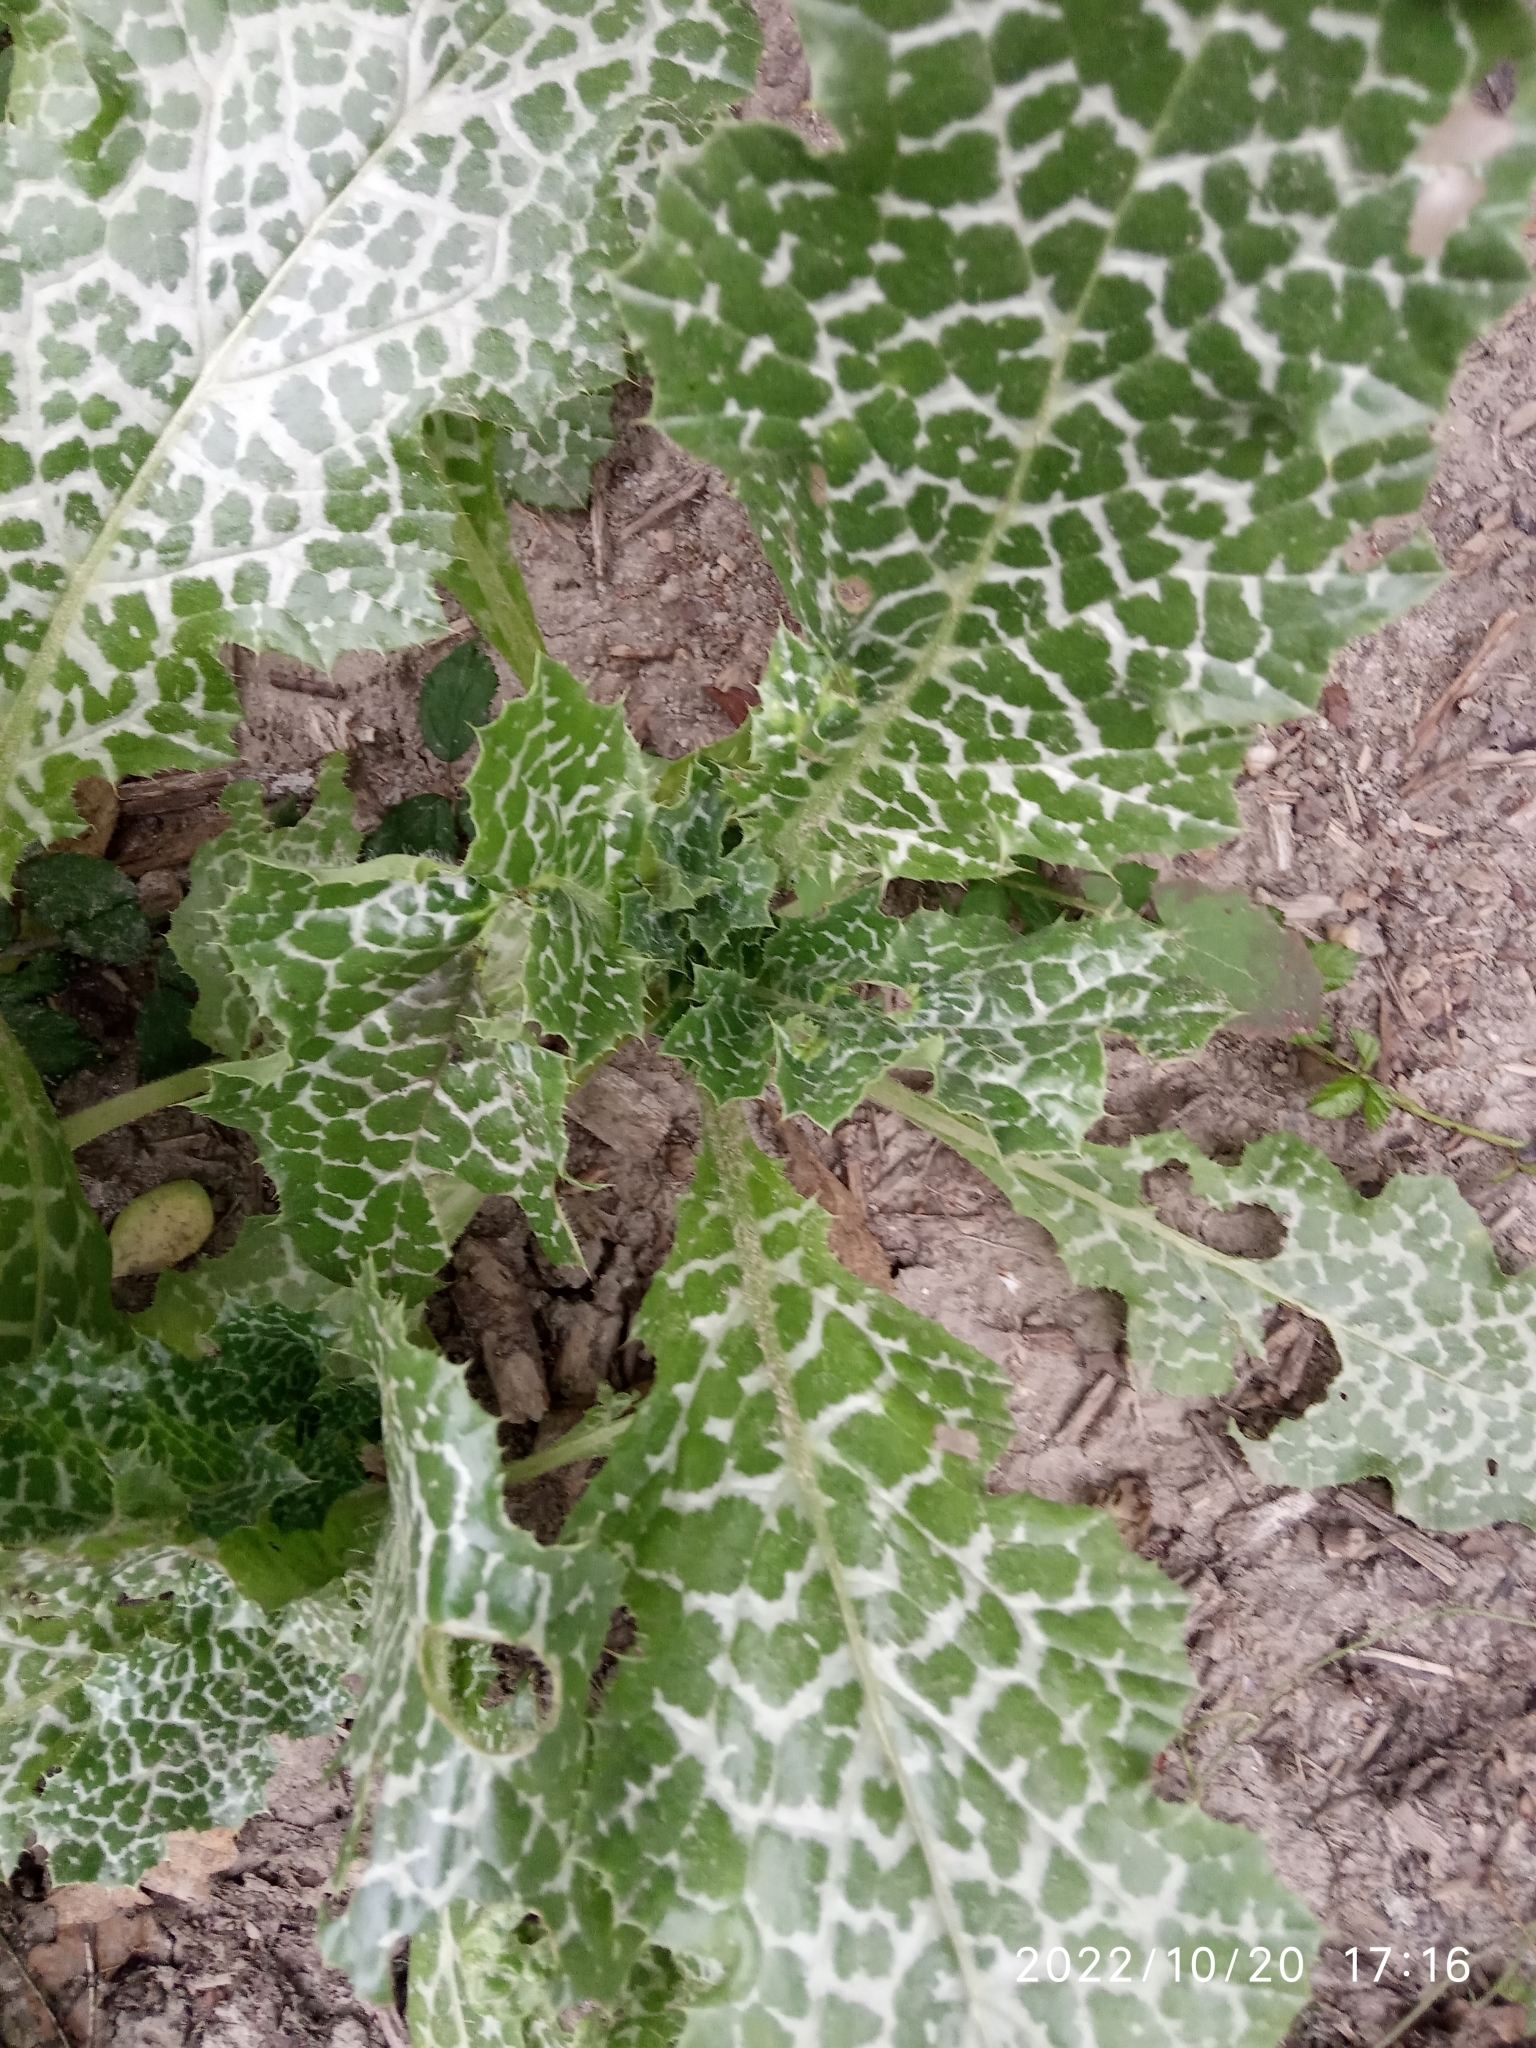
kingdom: Plantae
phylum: Tracheophyta
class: Magnoliopsida
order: Asterales
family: Asteraceae
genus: Silybum
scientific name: Silybum marianum
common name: Milk thistle
